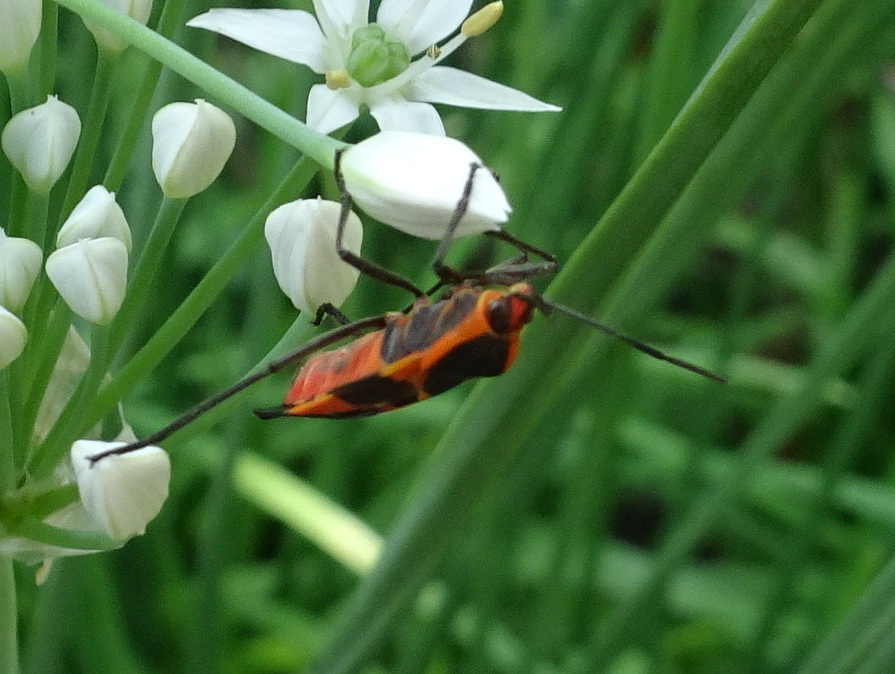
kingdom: Animalia
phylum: Arthropoda
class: Insecta
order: Hemiptera
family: Lygaeidae
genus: Oncopeltus
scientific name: Oncopeltus fasciatus
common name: Large milkweed bug
